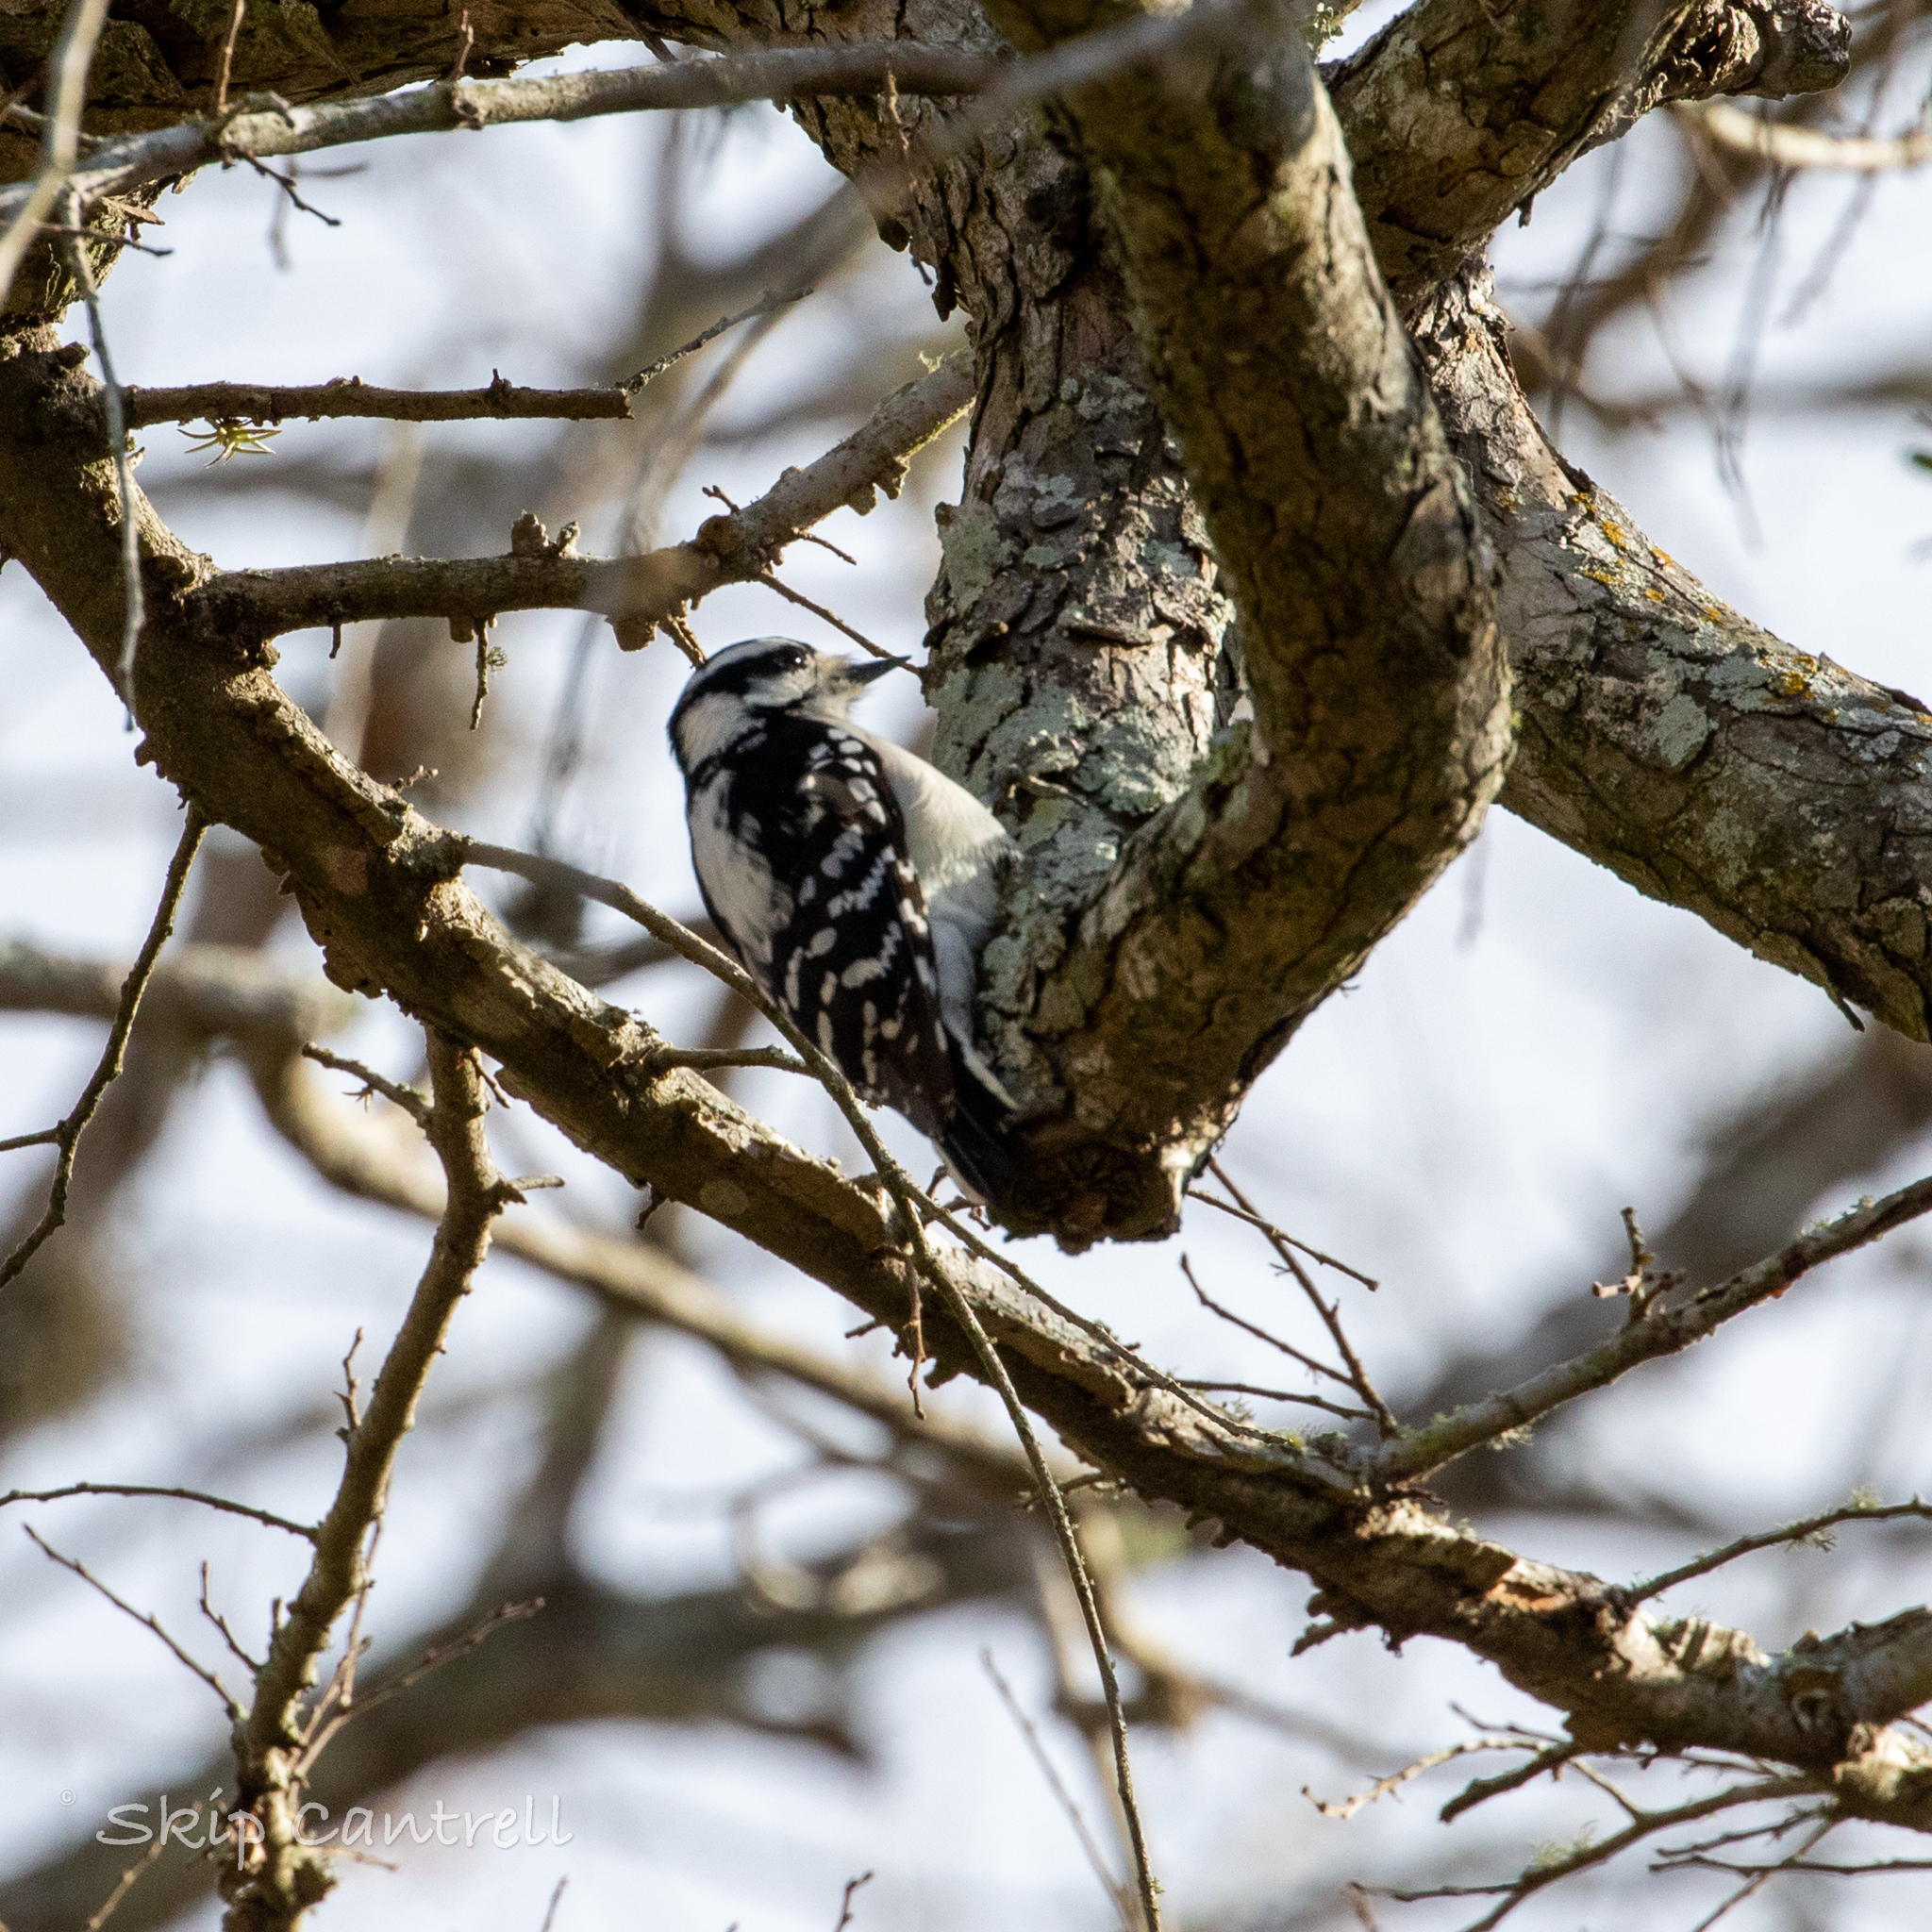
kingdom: Animalia
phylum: Chordata
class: Aves
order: Piciformes
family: Picidae
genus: Dryobates
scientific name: Dryobates pubescens
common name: Downy woodpecker
